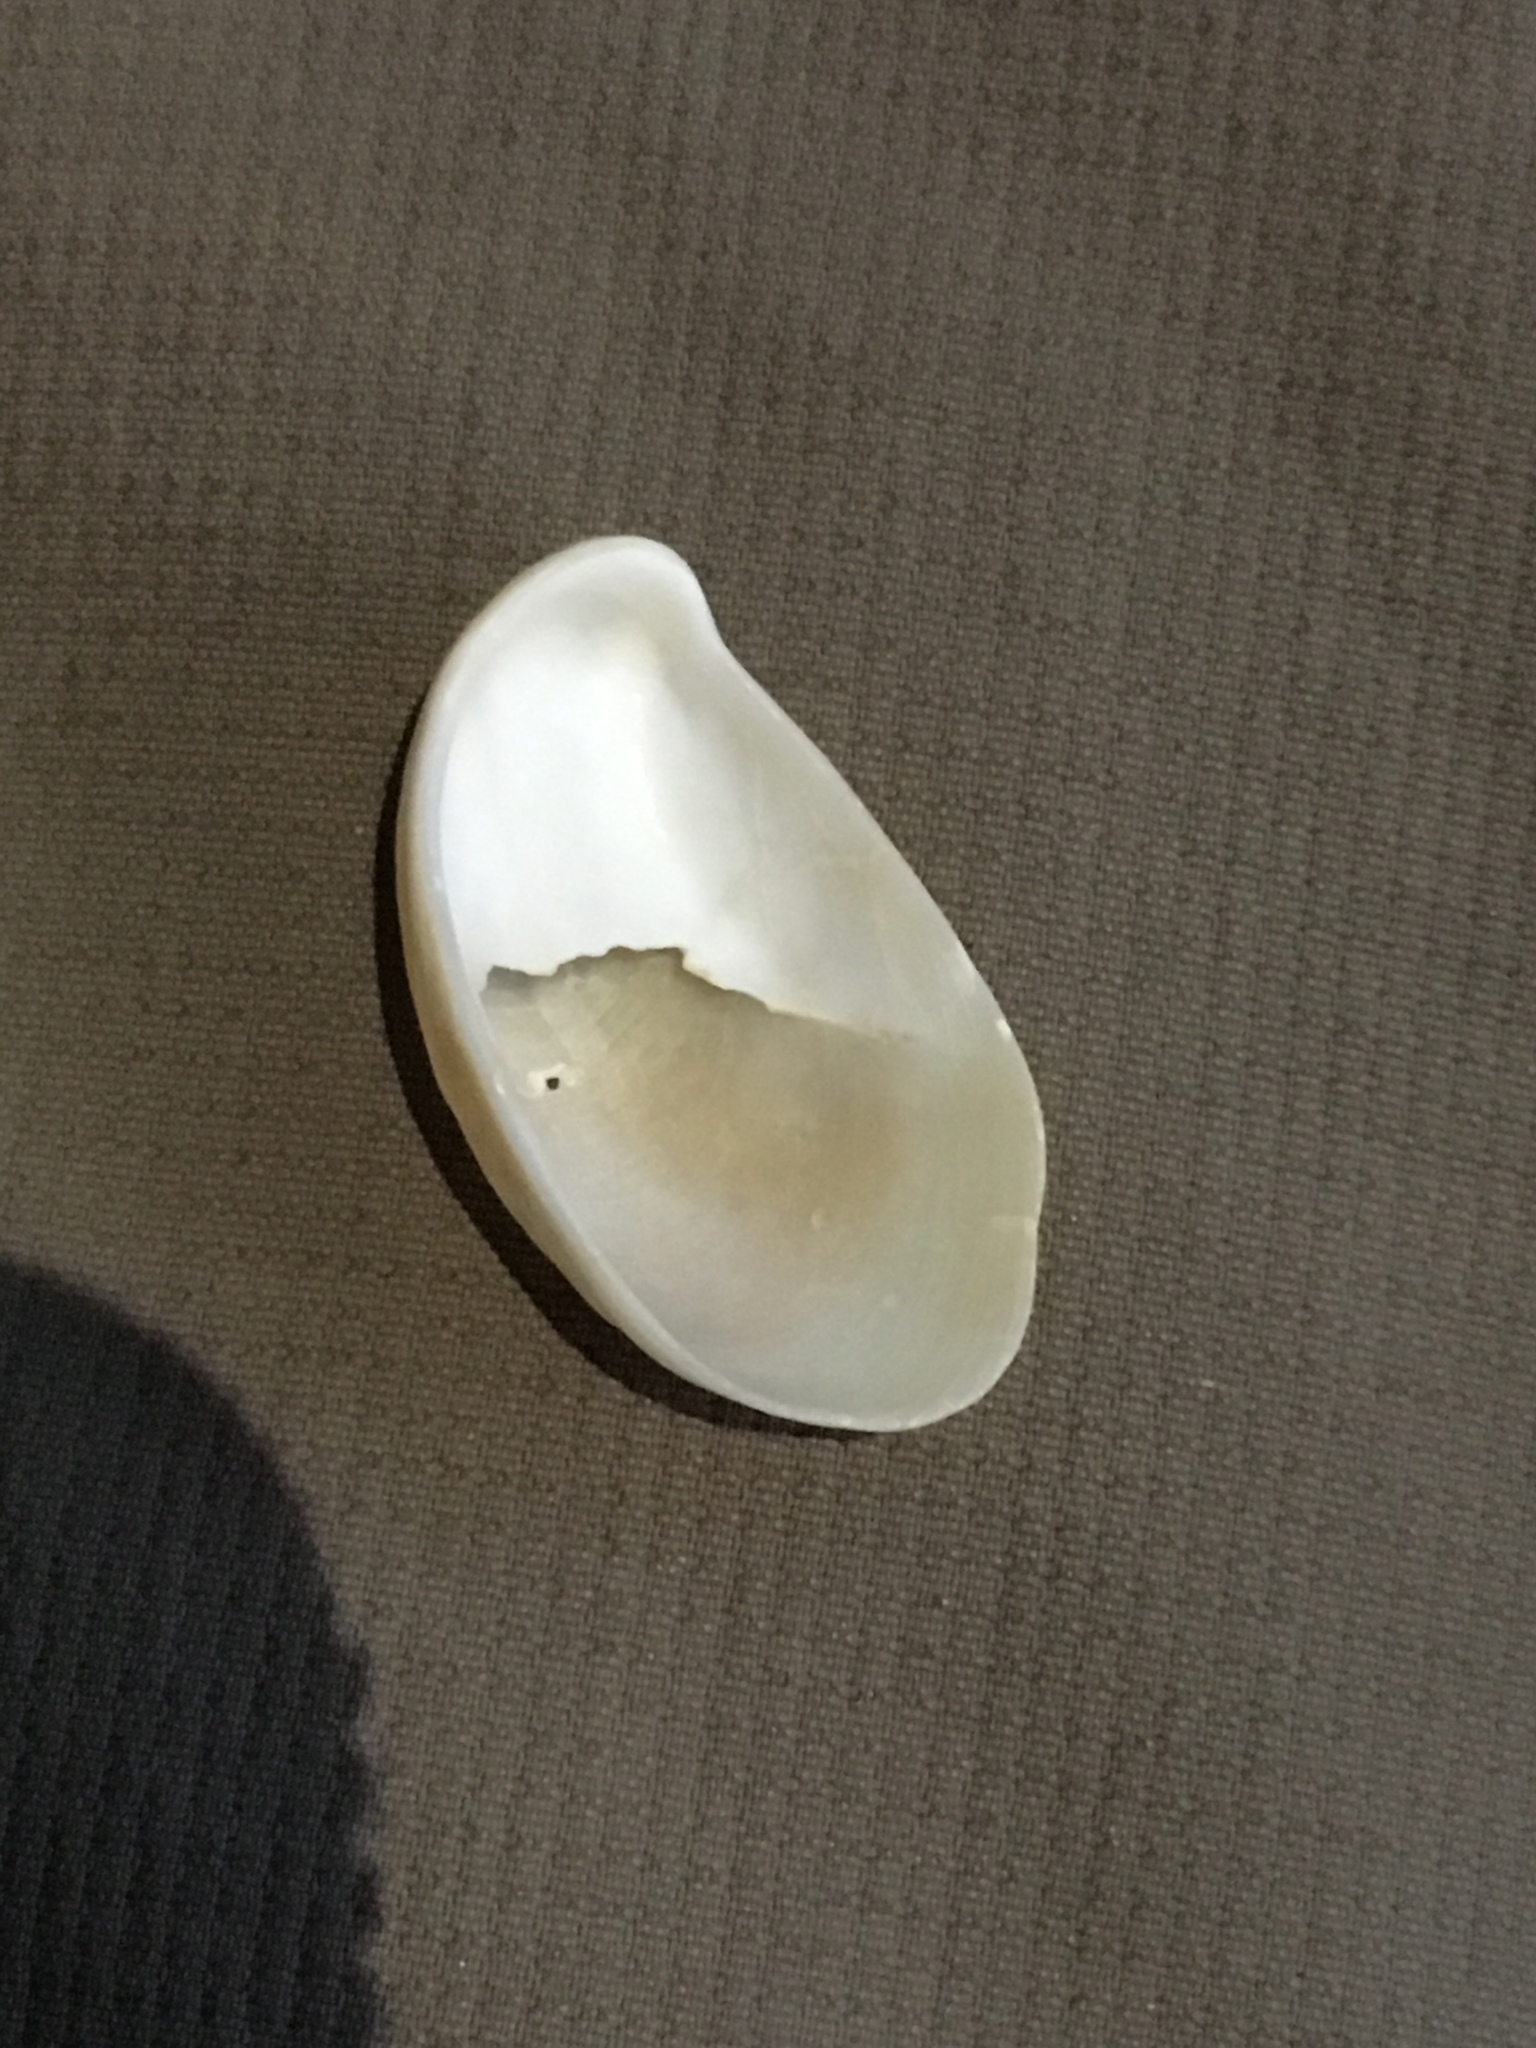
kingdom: Animalia
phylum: Mollusca
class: Gastropoda
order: Littorinimorpha
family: Calyptraeidae
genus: Crepidula
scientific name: Crepidula fornicata
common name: Slipper limpet
